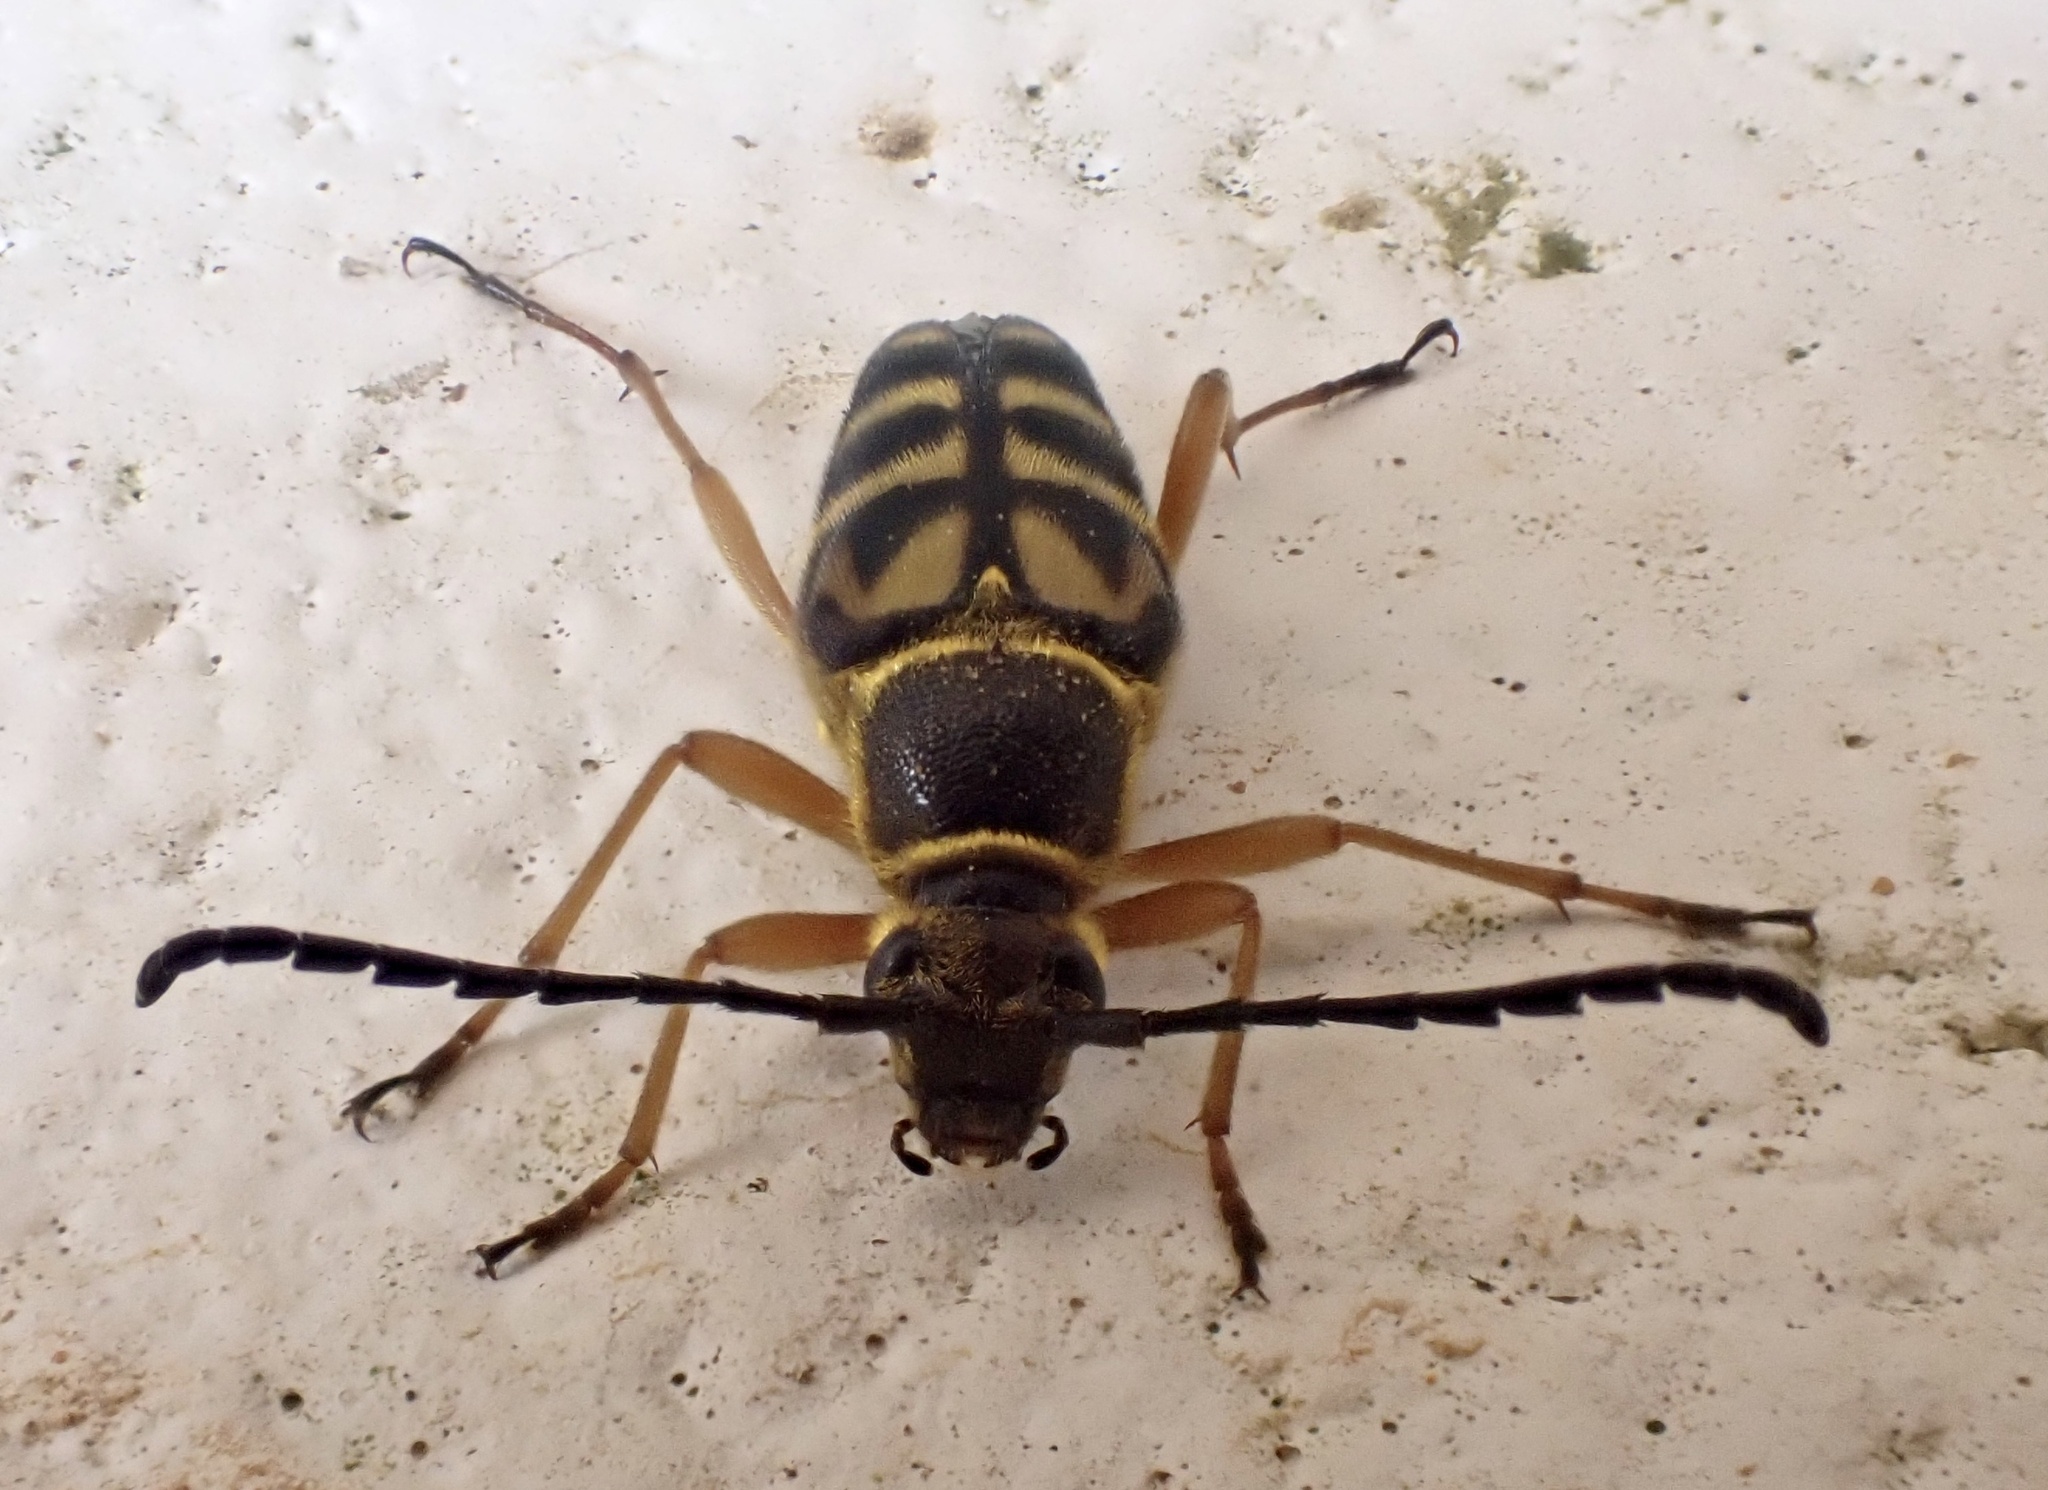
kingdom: Animalia
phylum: Arthropoda
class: Insecta
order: Coleoptera
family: Cerambycidae
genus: Typocerus
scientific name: Typocerus zebra
